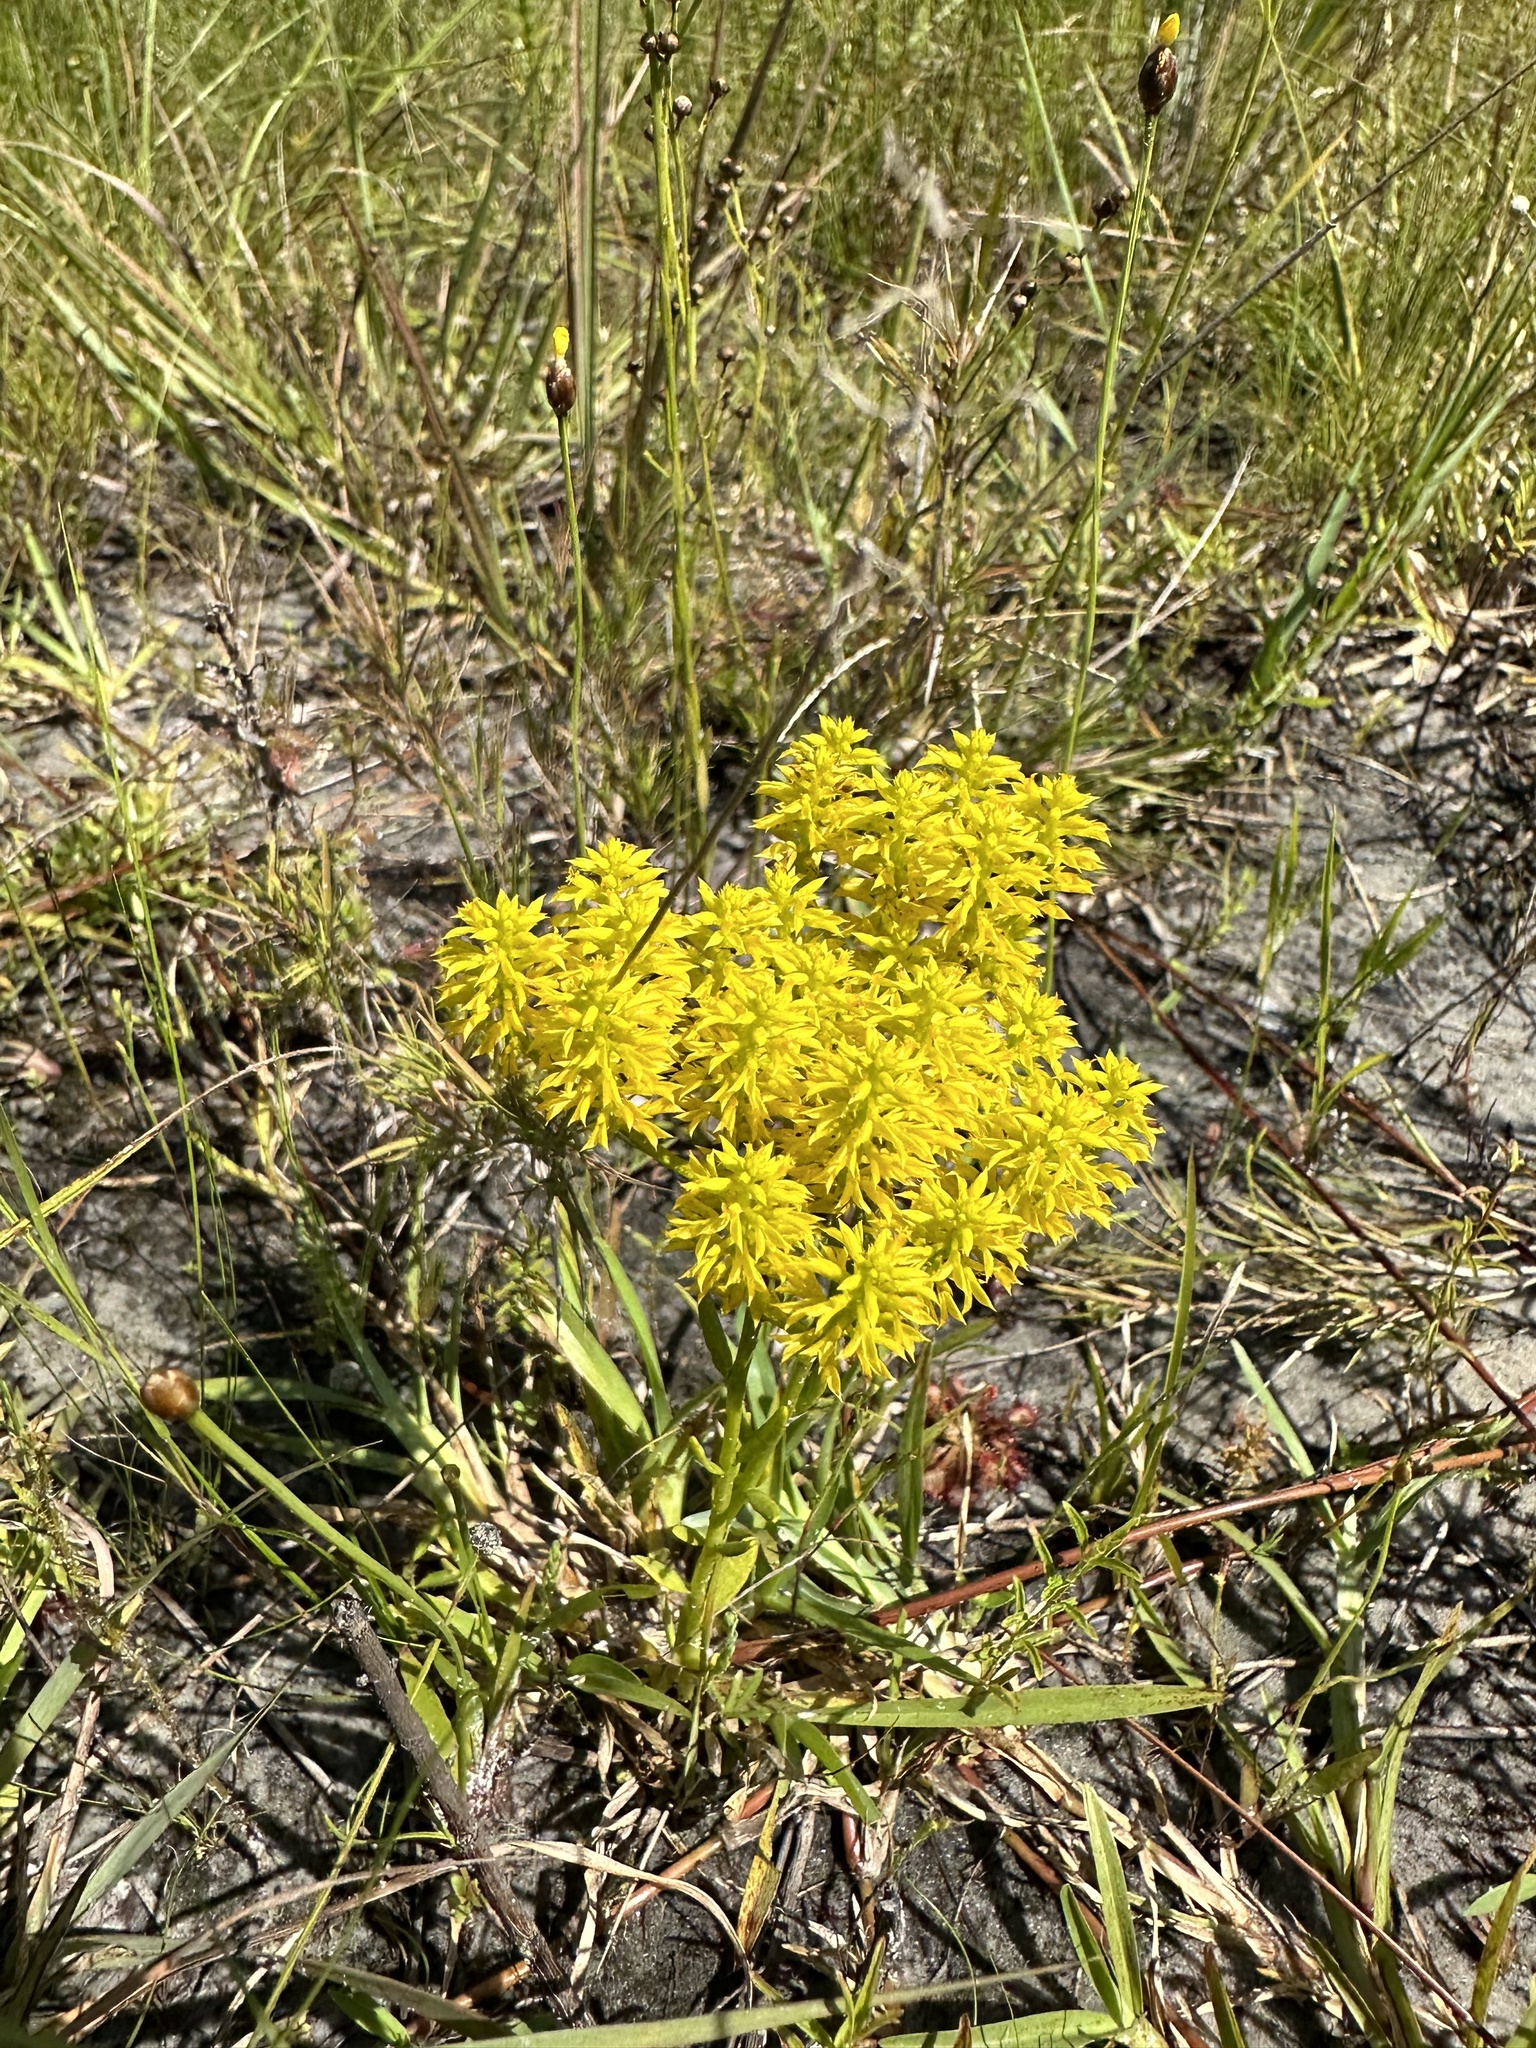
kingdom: Plantae
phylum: Tracheophyta
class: Magnoliopsida
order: Fabales
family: Polygalaceae
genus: Polygala
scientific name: Polygala ramosa
